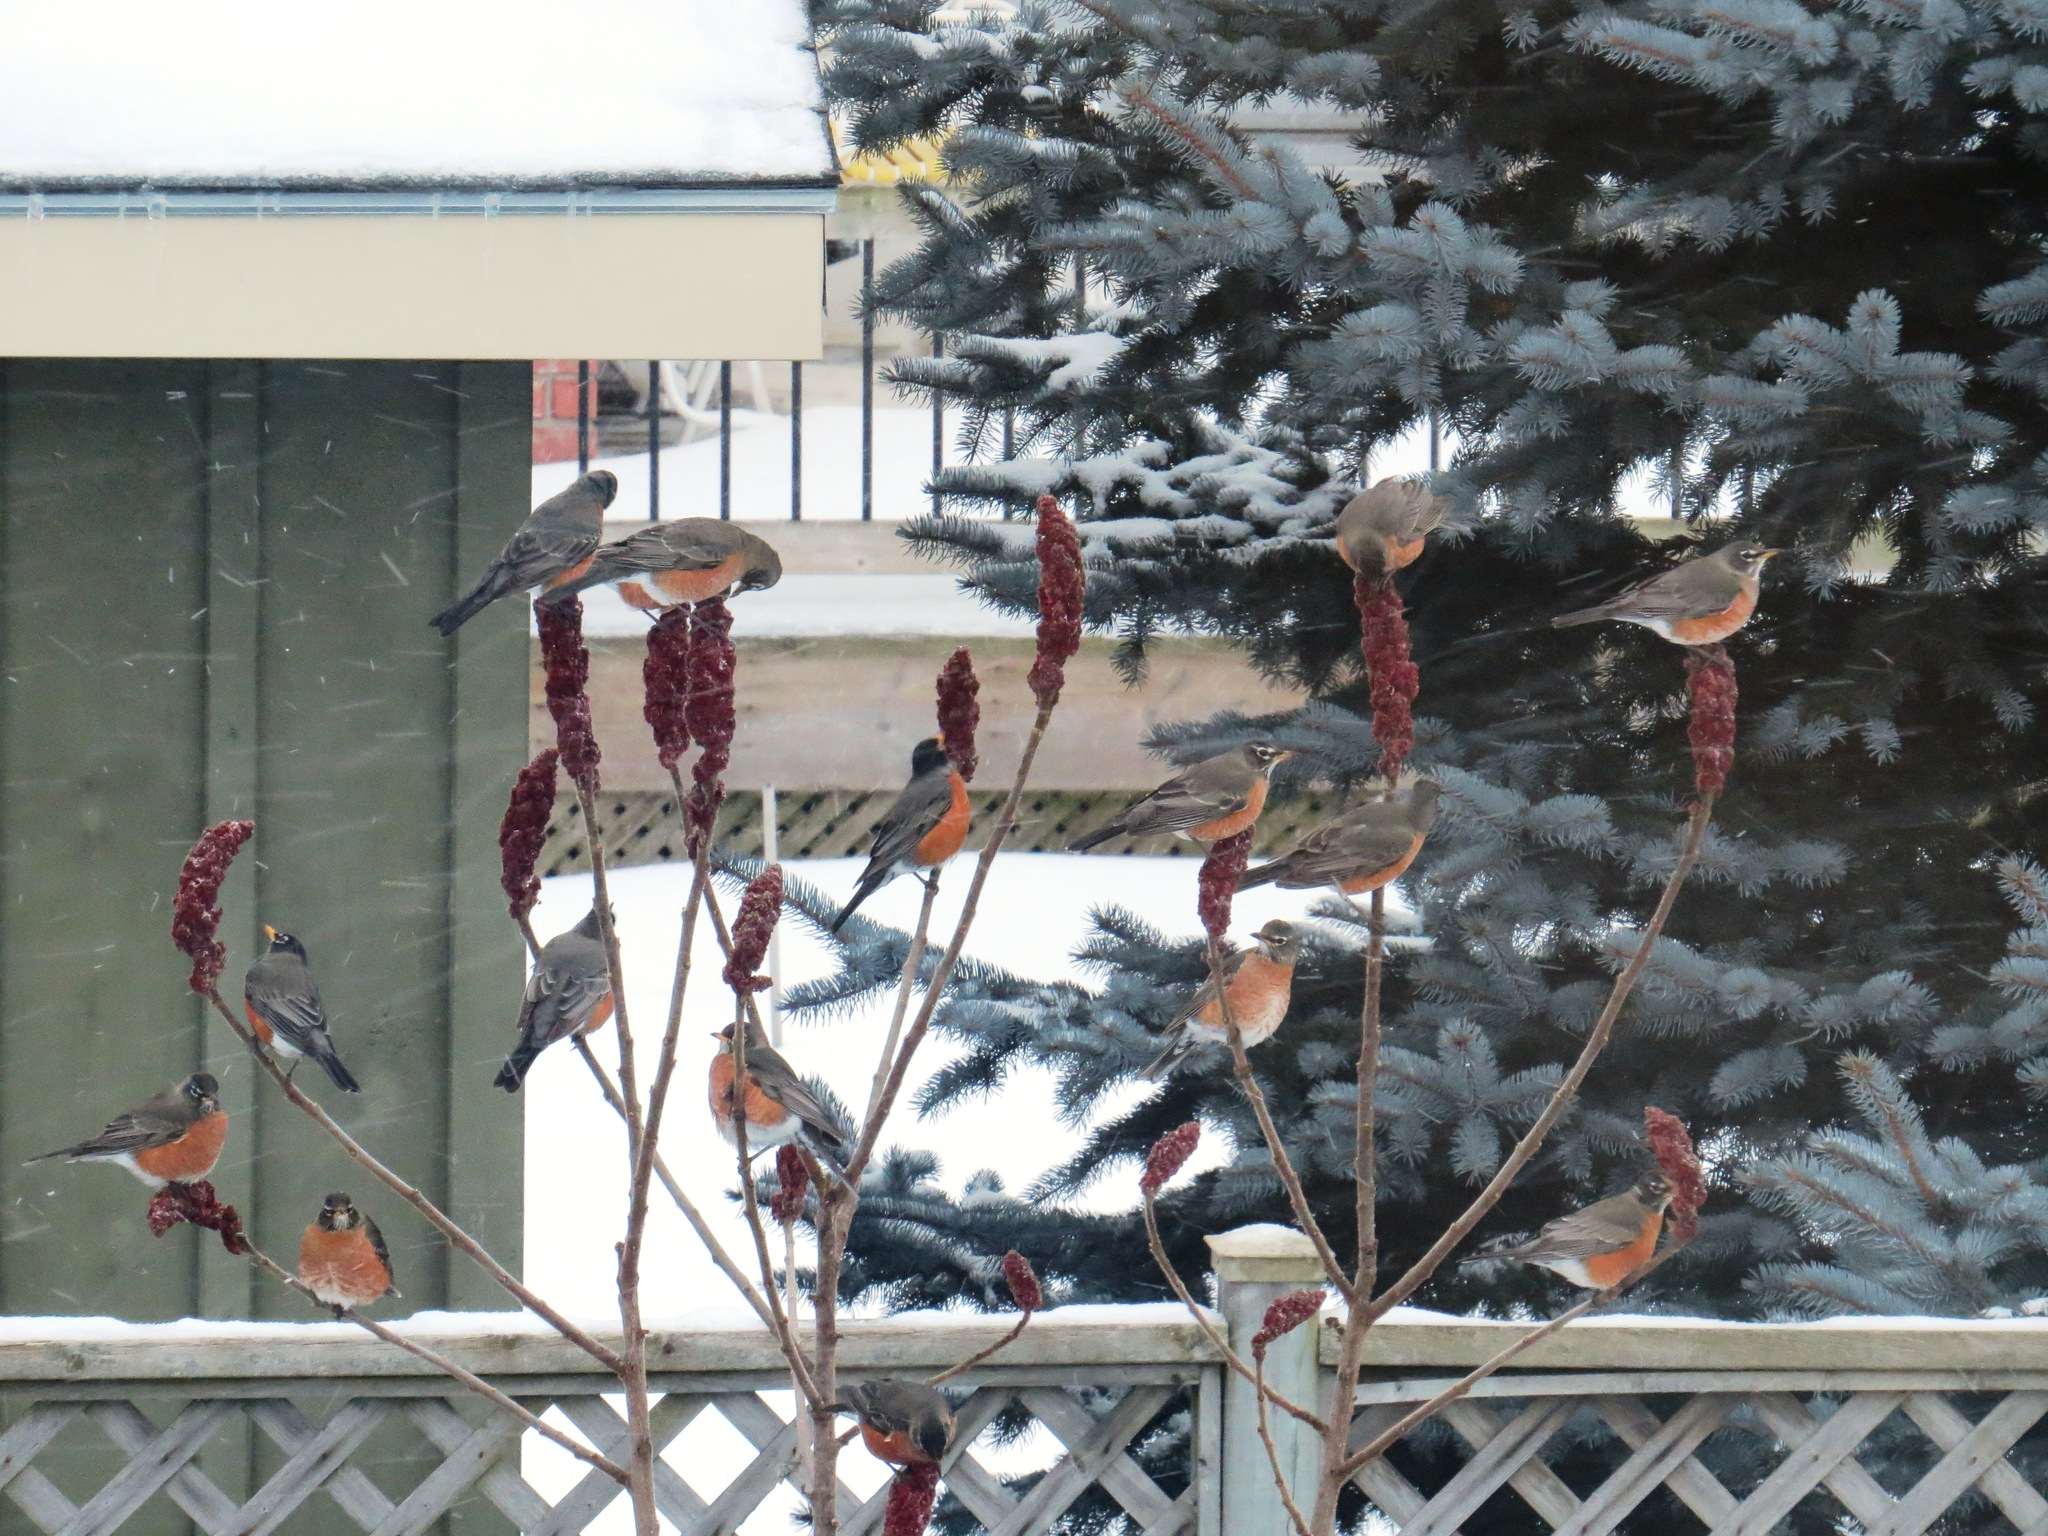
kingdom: Animalia
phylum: Chordata
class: Aves
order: Passeriformes
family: Turdidae
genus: Turdus
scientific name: Turdus migratorius
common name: American robin
